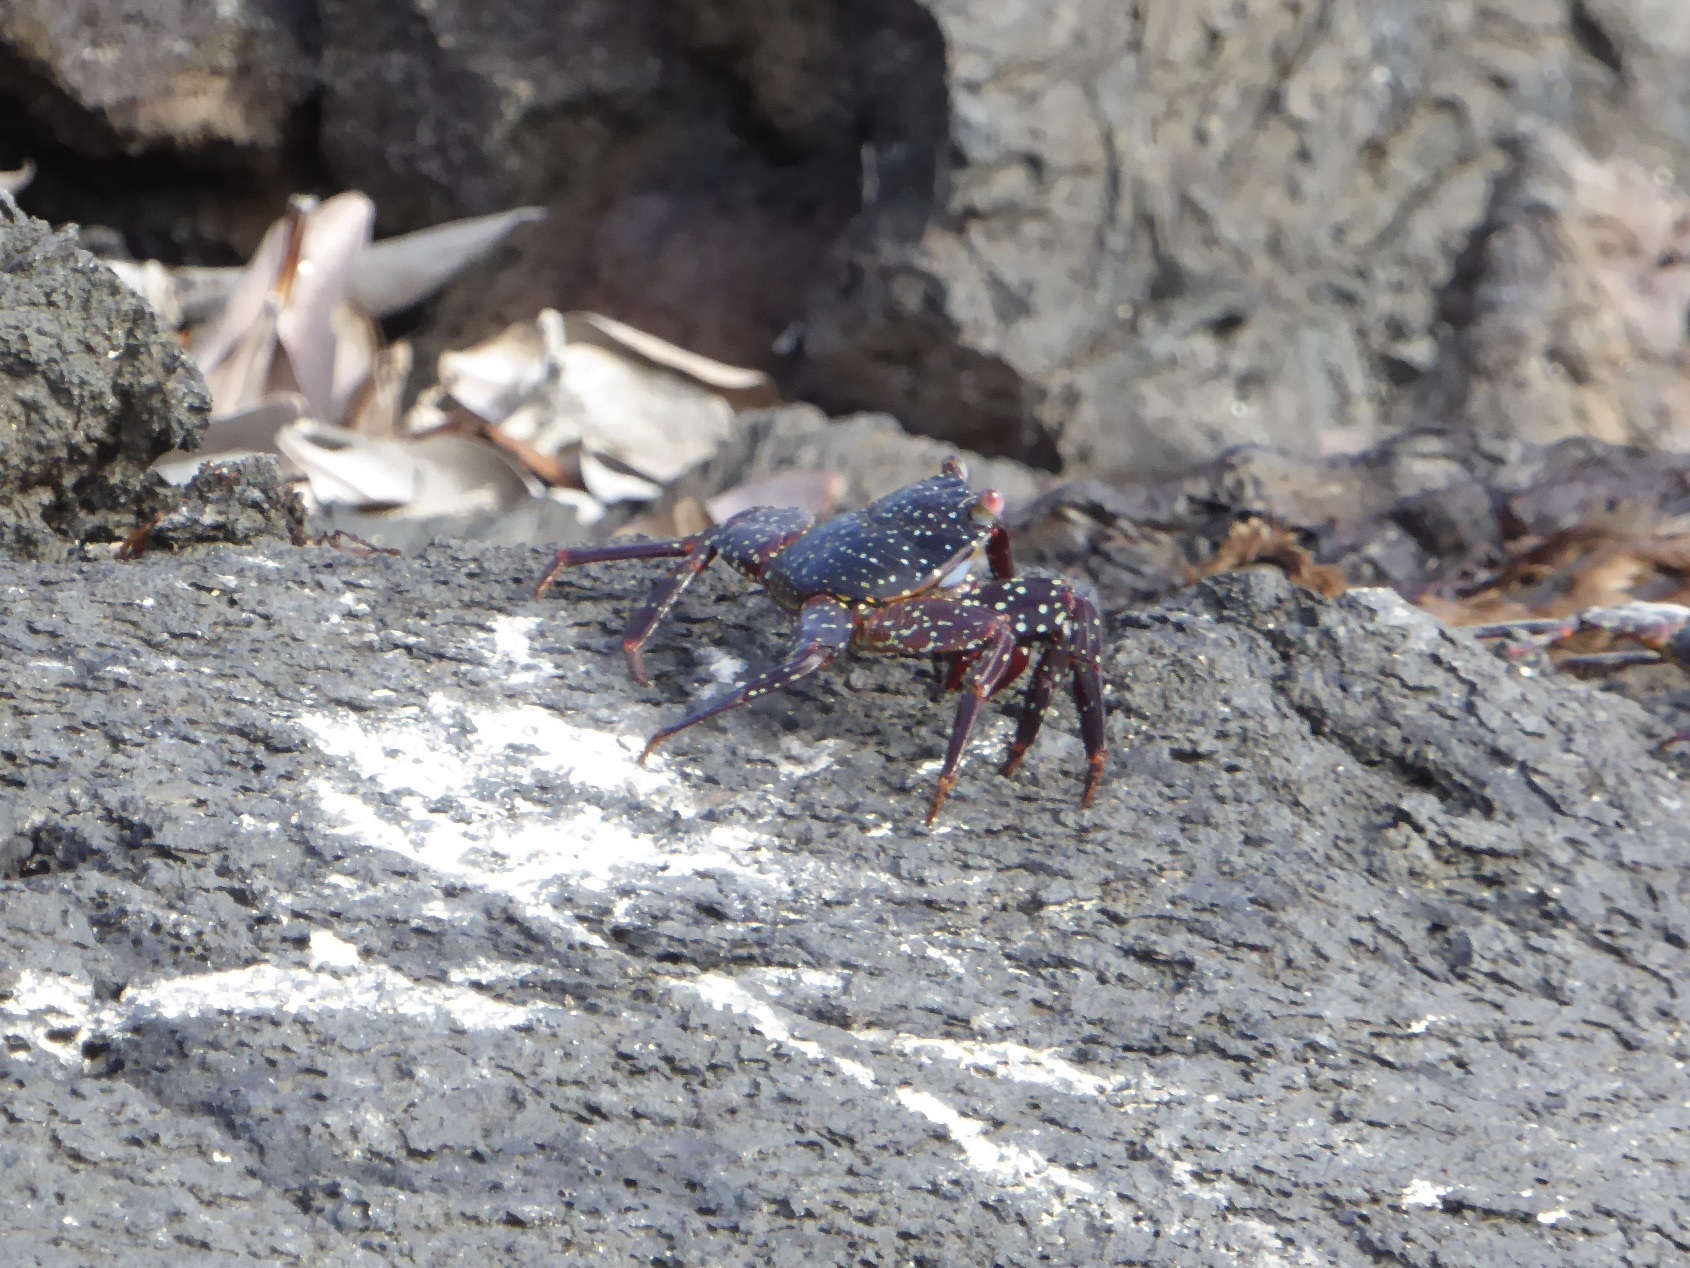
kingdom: Animalia
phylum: Arthropoda
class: Malacostraca
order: Decapoda
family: Grapsidae
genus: Grapsus
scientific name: Grapsus grapsus
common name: Sally lightfoot
